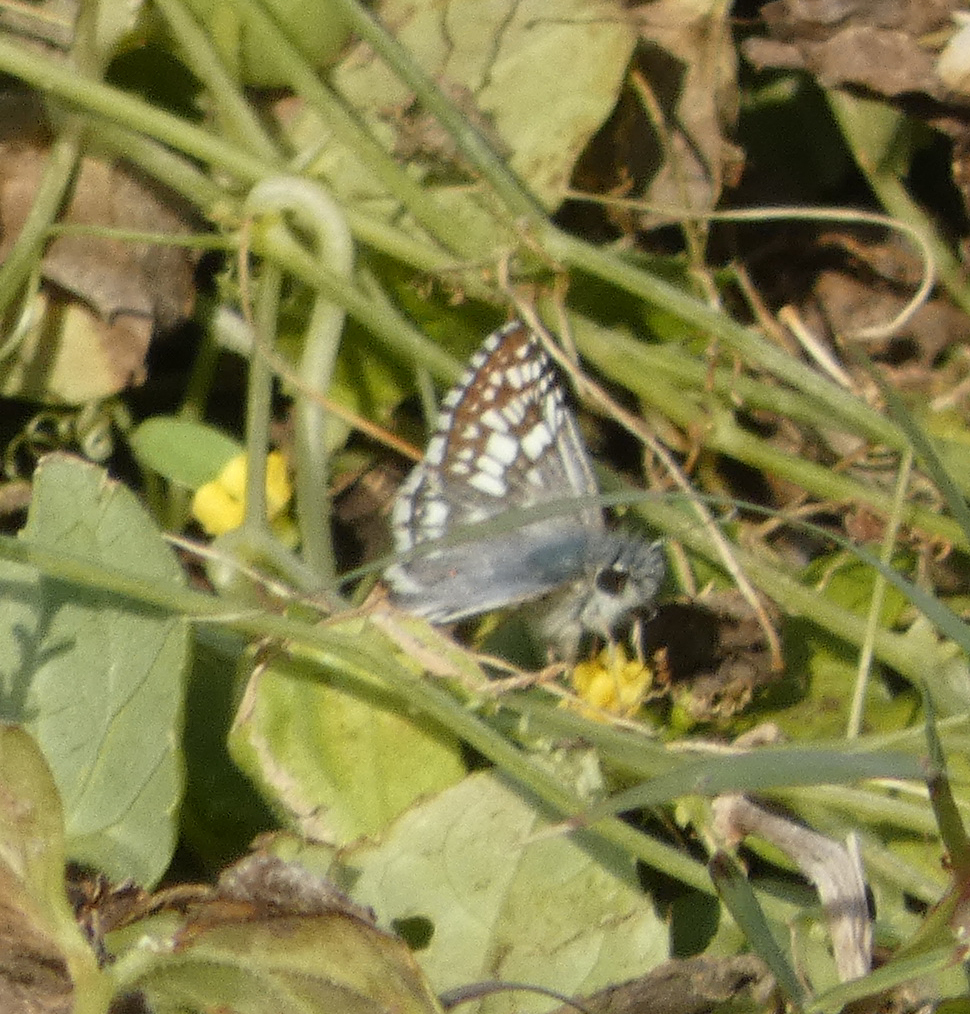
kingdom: Animalia
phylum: Arthropoda
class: Insecta
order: Lepidoptera
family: Hesperiidae
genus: Burnsius
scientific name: Burnsius
